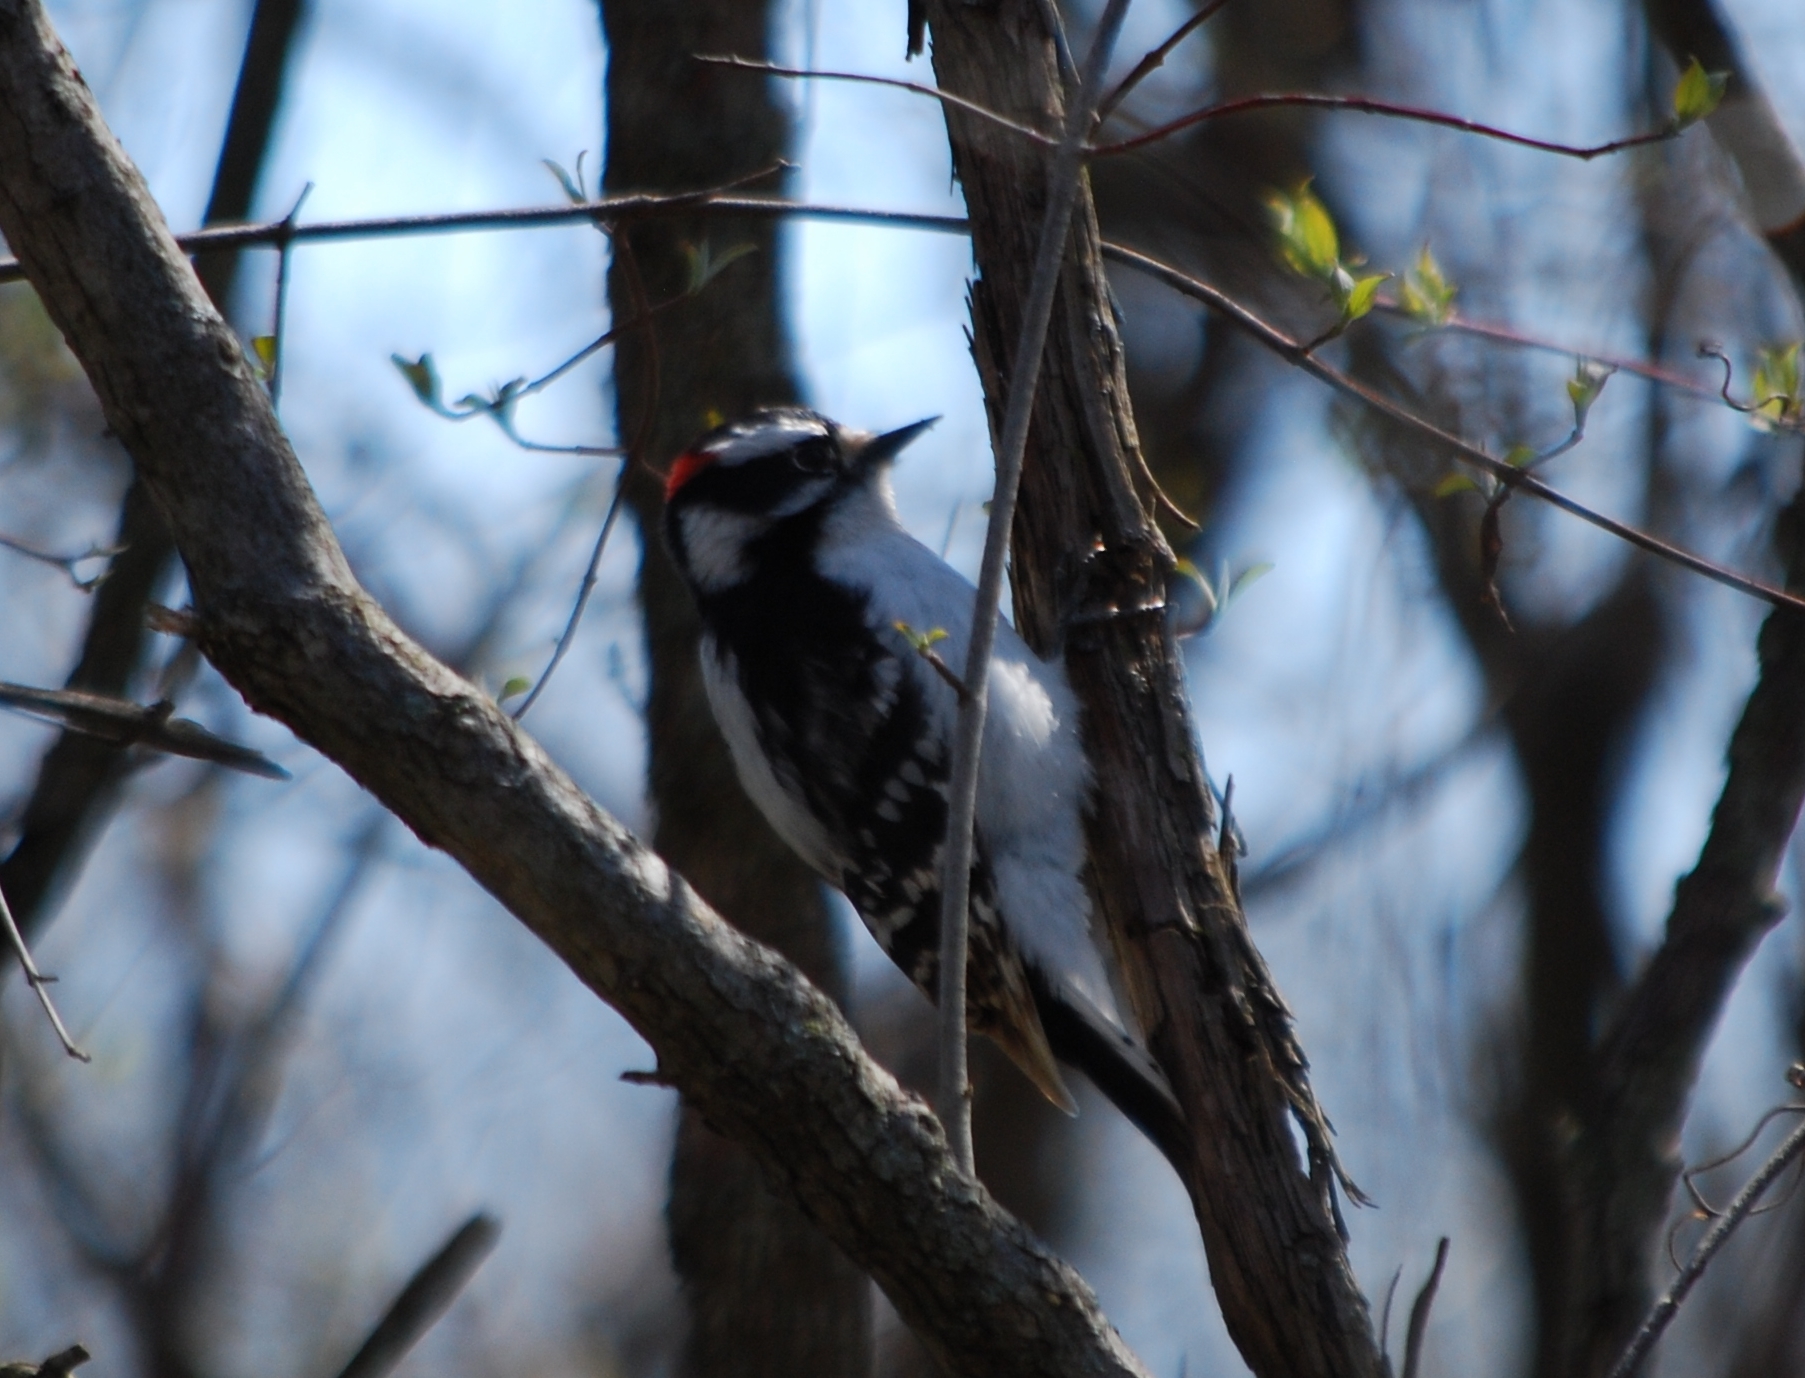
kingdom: Animalia
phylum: Chordata
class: Aves
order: Piciformes
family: Picidae
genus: Dryobates
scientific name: Dryobates pubescens
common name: Downy woodpecker
